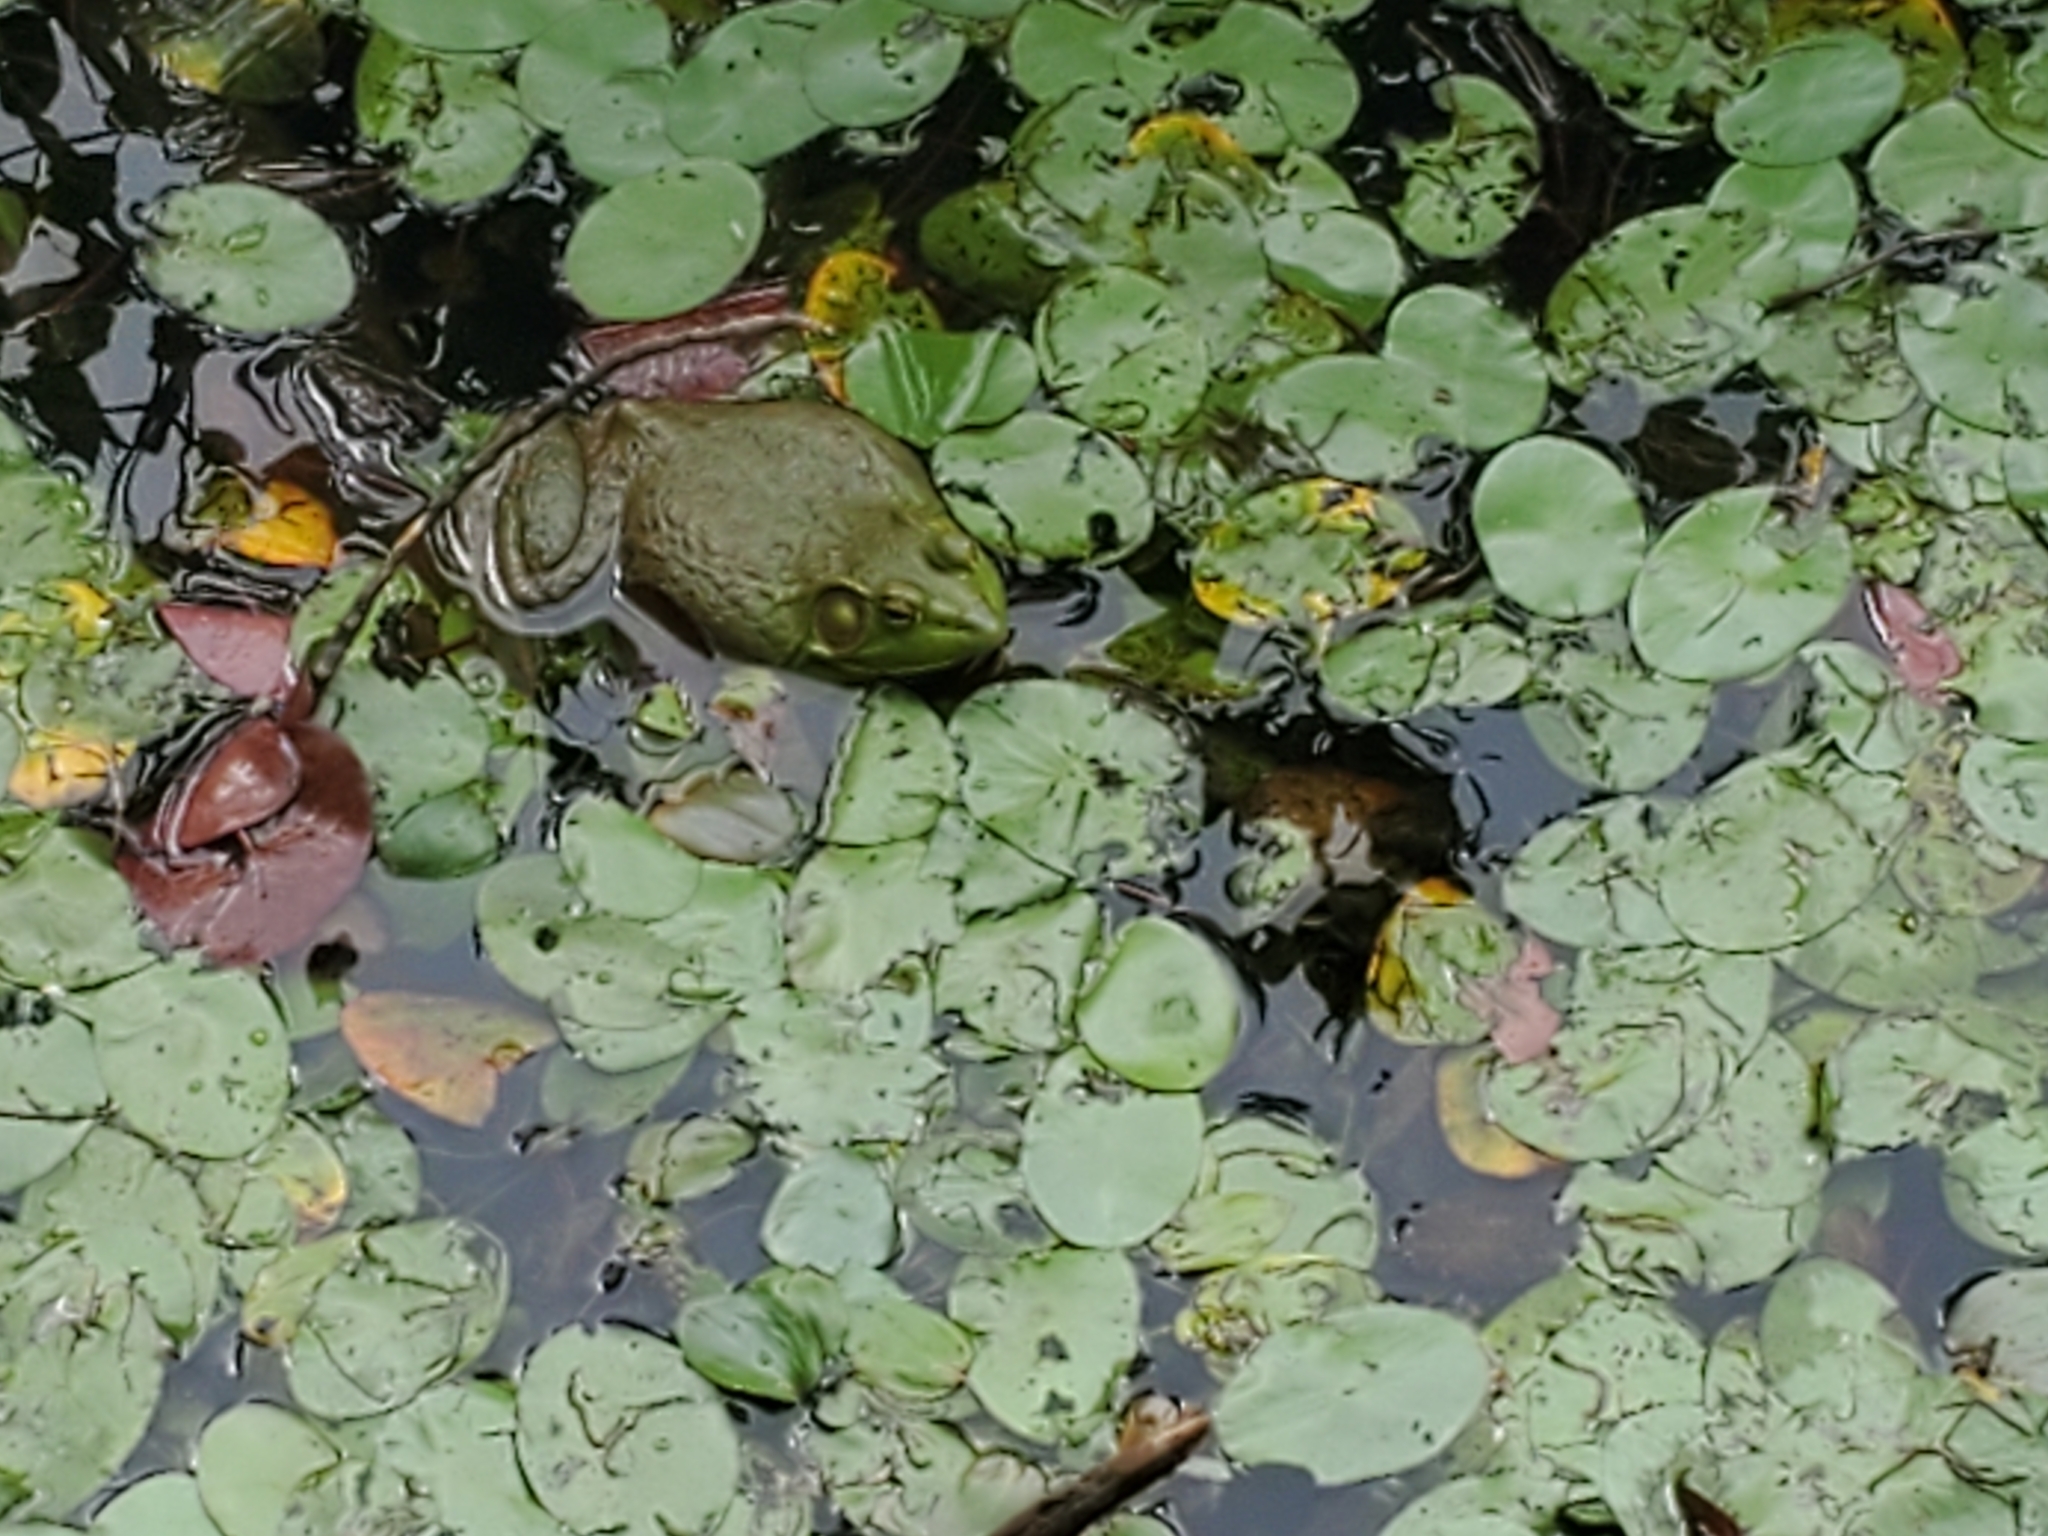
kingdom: Animalia
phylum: Chordata
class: Amphibia
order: Anura
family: Ranidae
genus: Lithobates
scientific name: Lithobates catesbeianus
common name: American bullfrog
